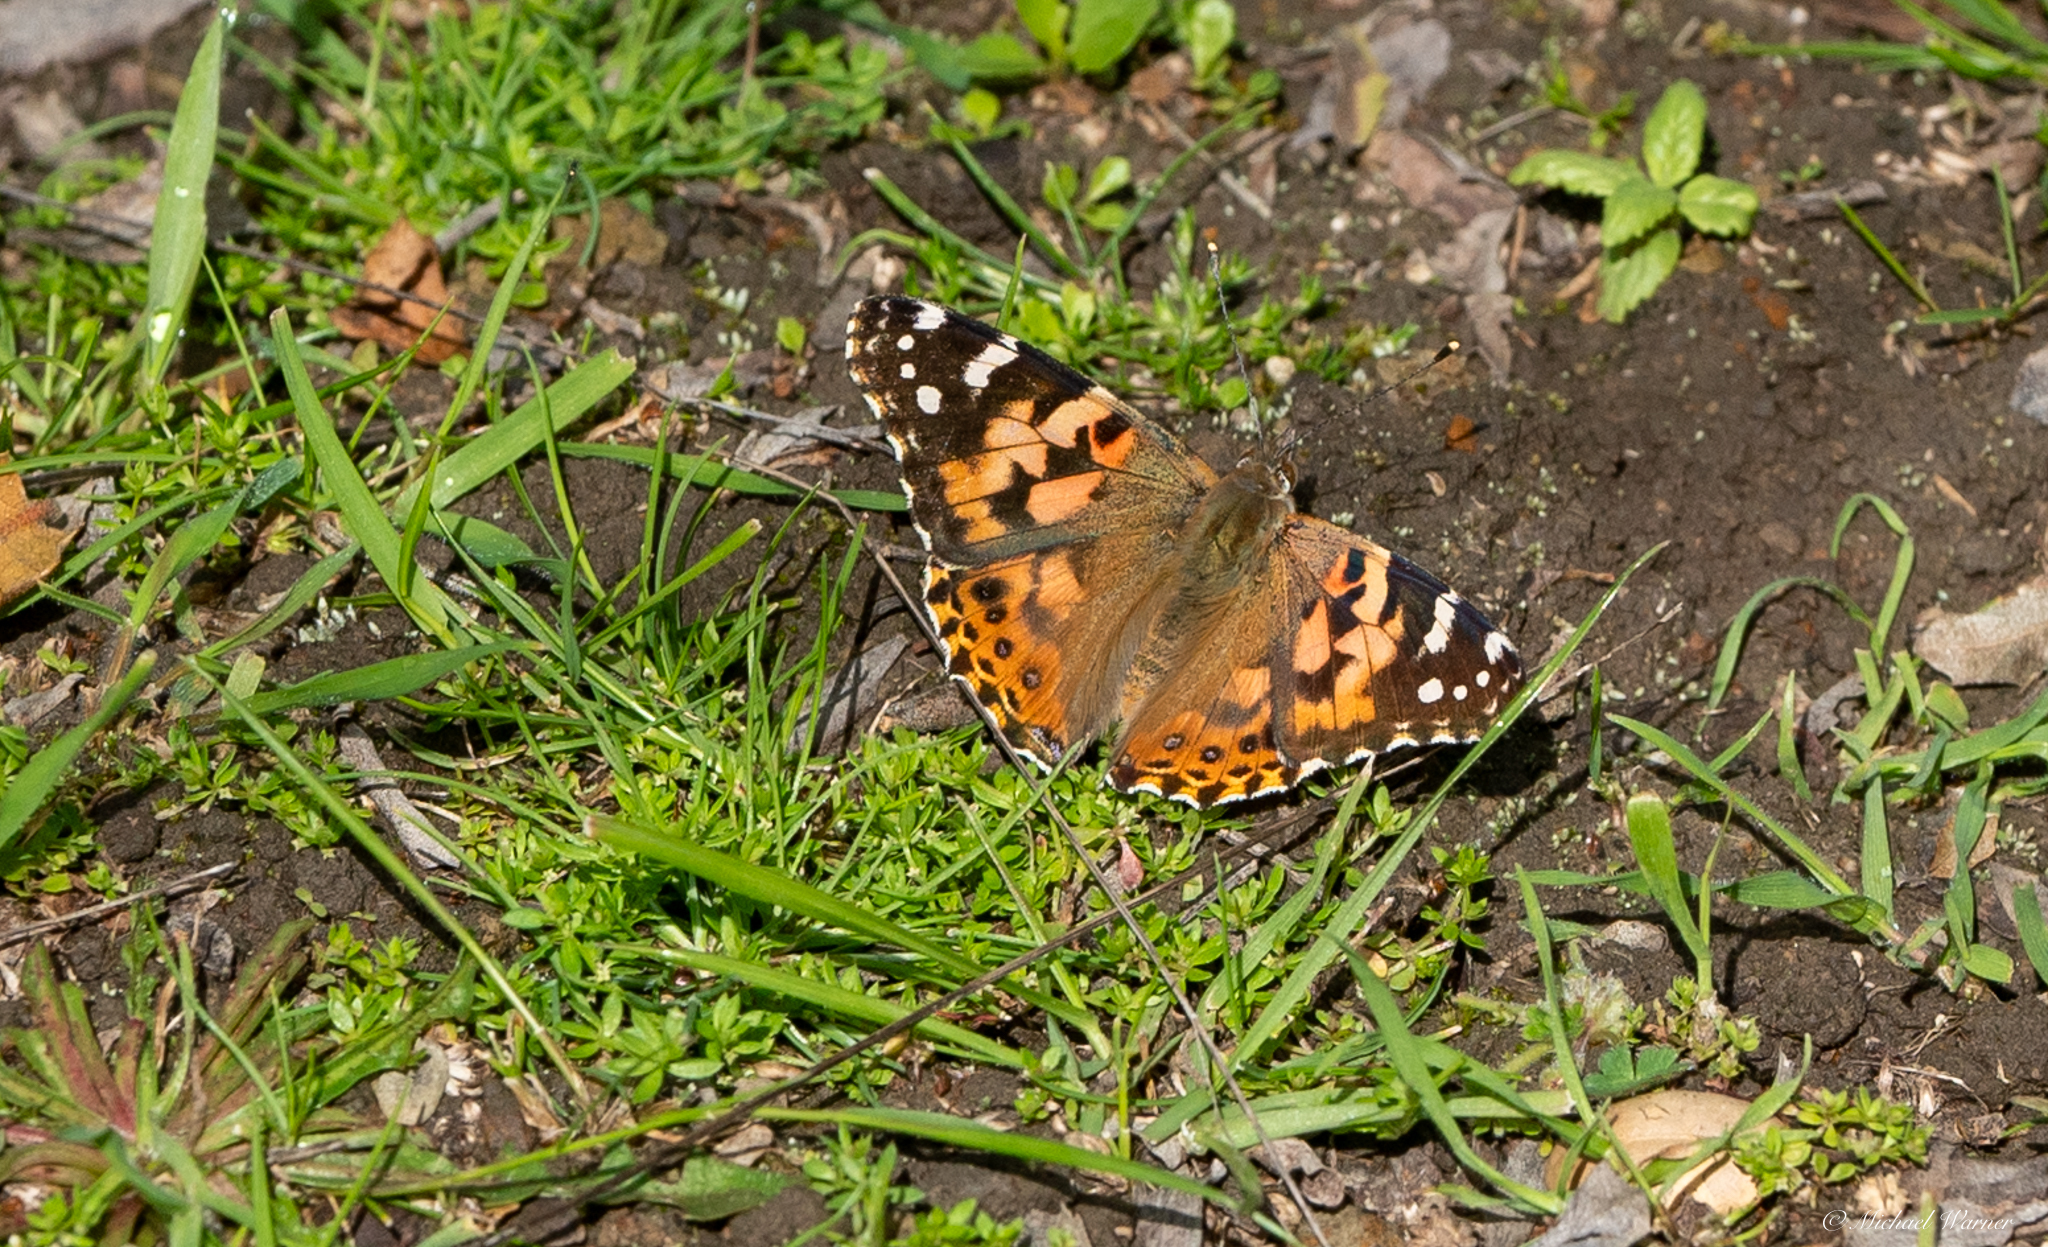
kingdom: Animalia
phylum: Arthropoda
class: Insecta
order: Lepidoptera
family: Nymphalidae
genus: Vanessa
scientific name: Vanessa cardui
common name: Painted lady
